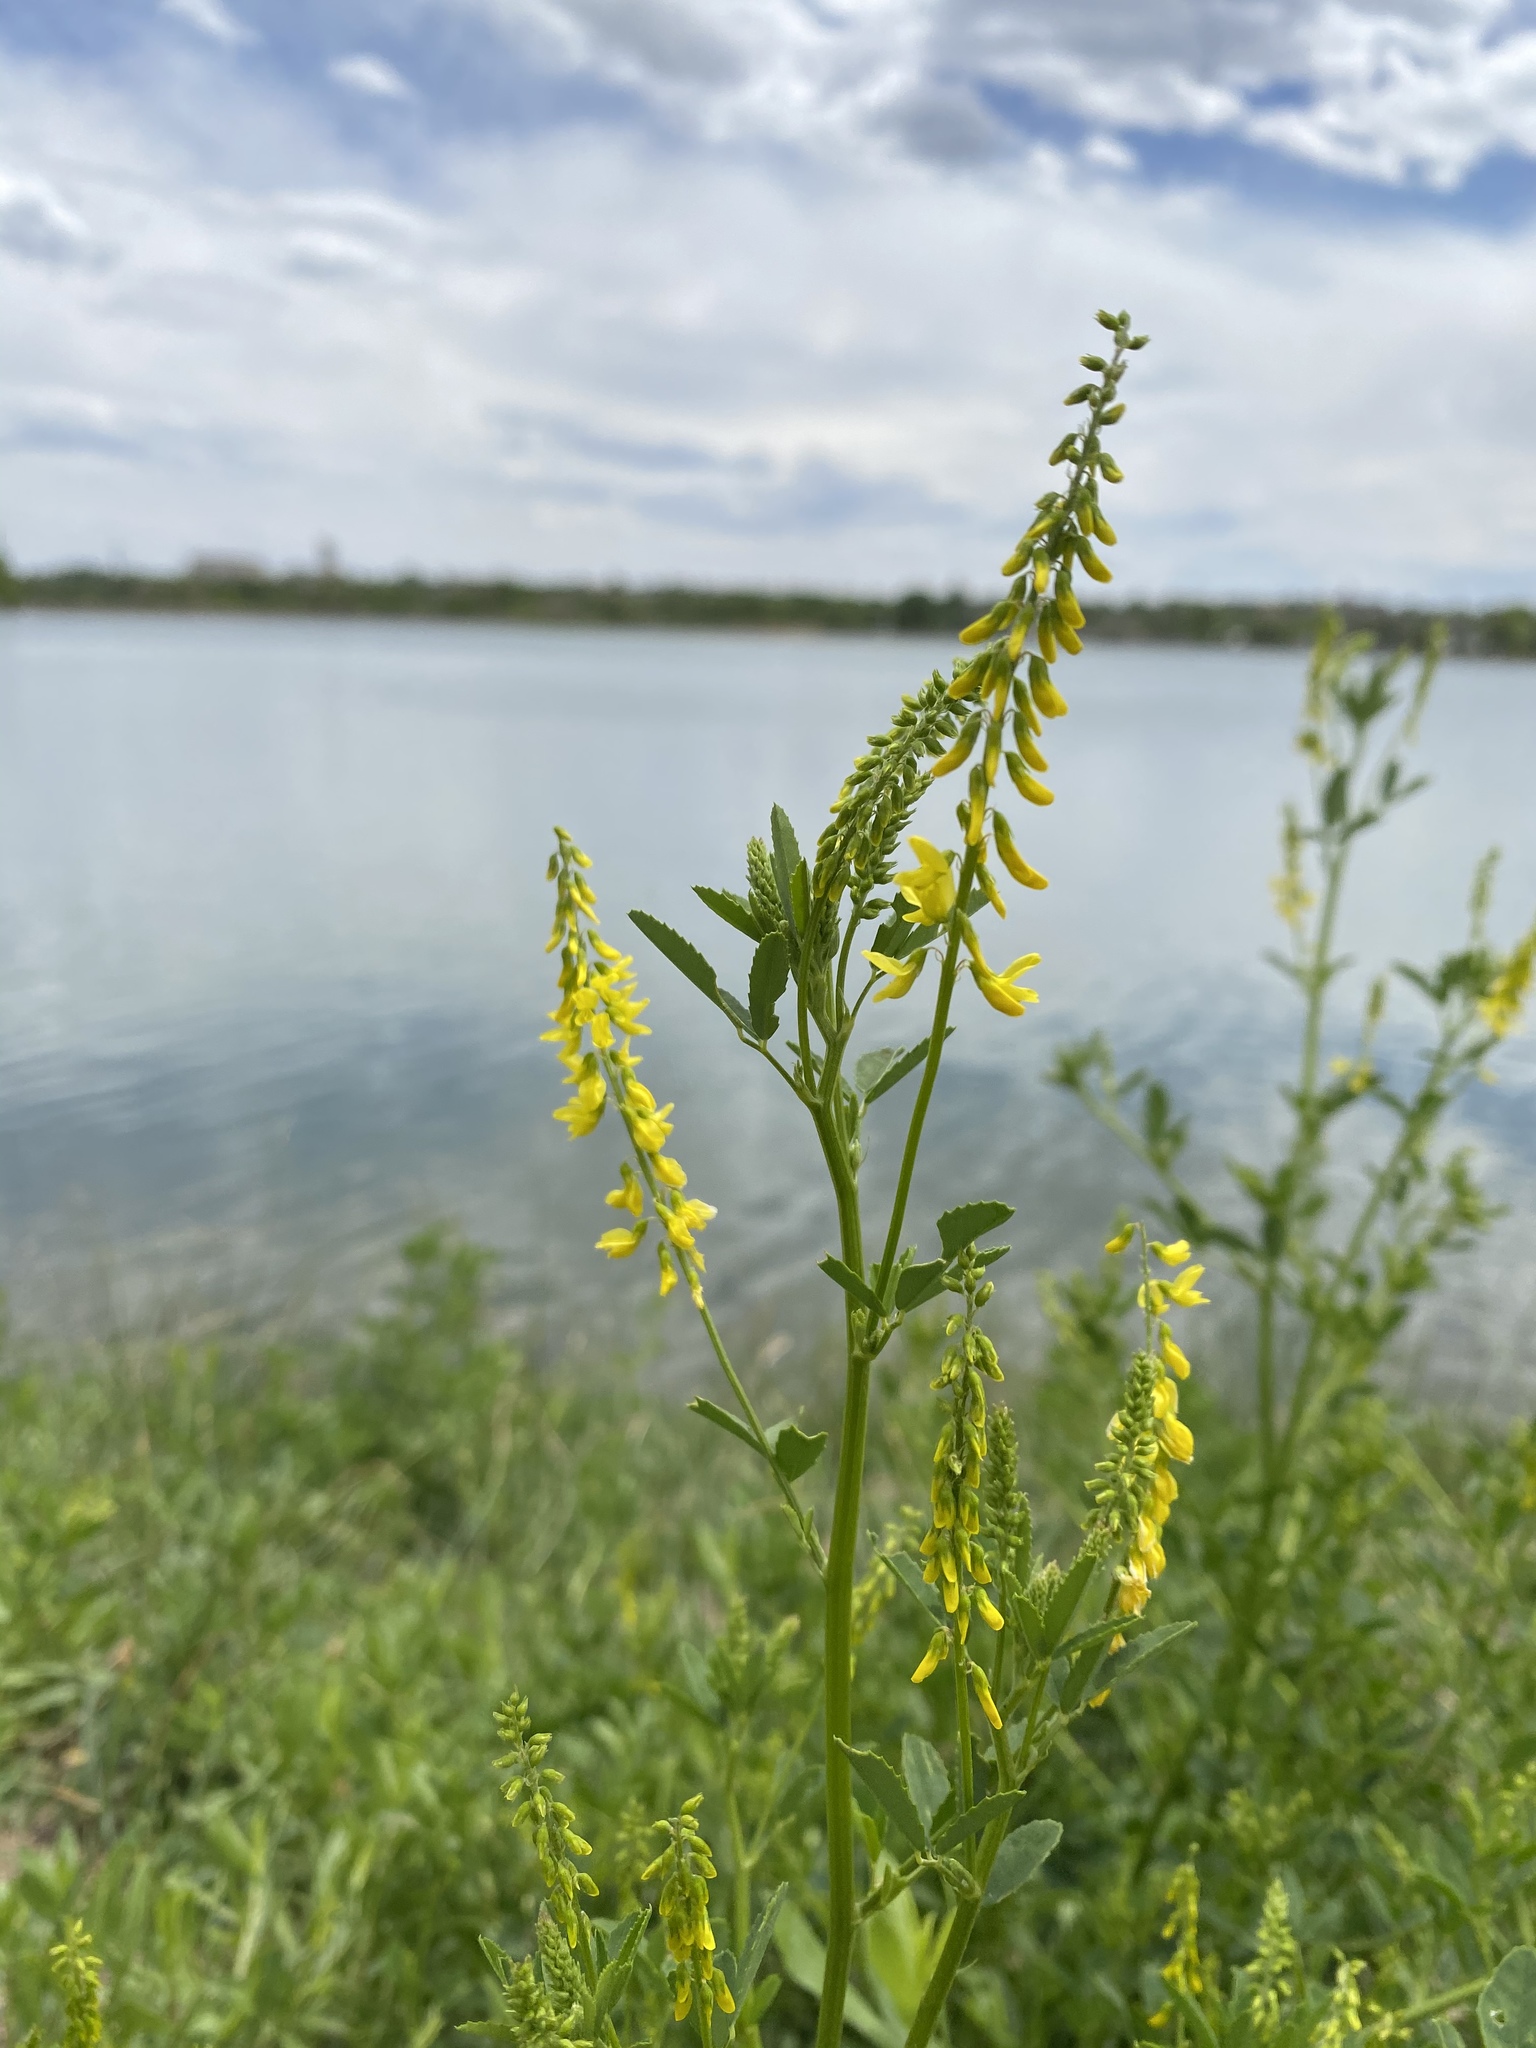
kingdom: Plantae
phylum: Tracheophyta
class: Magnoliopsida
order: Fabales
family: Fabaceae
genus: Melilotus
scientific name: Melilotus officinalis
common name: Sweetclover
